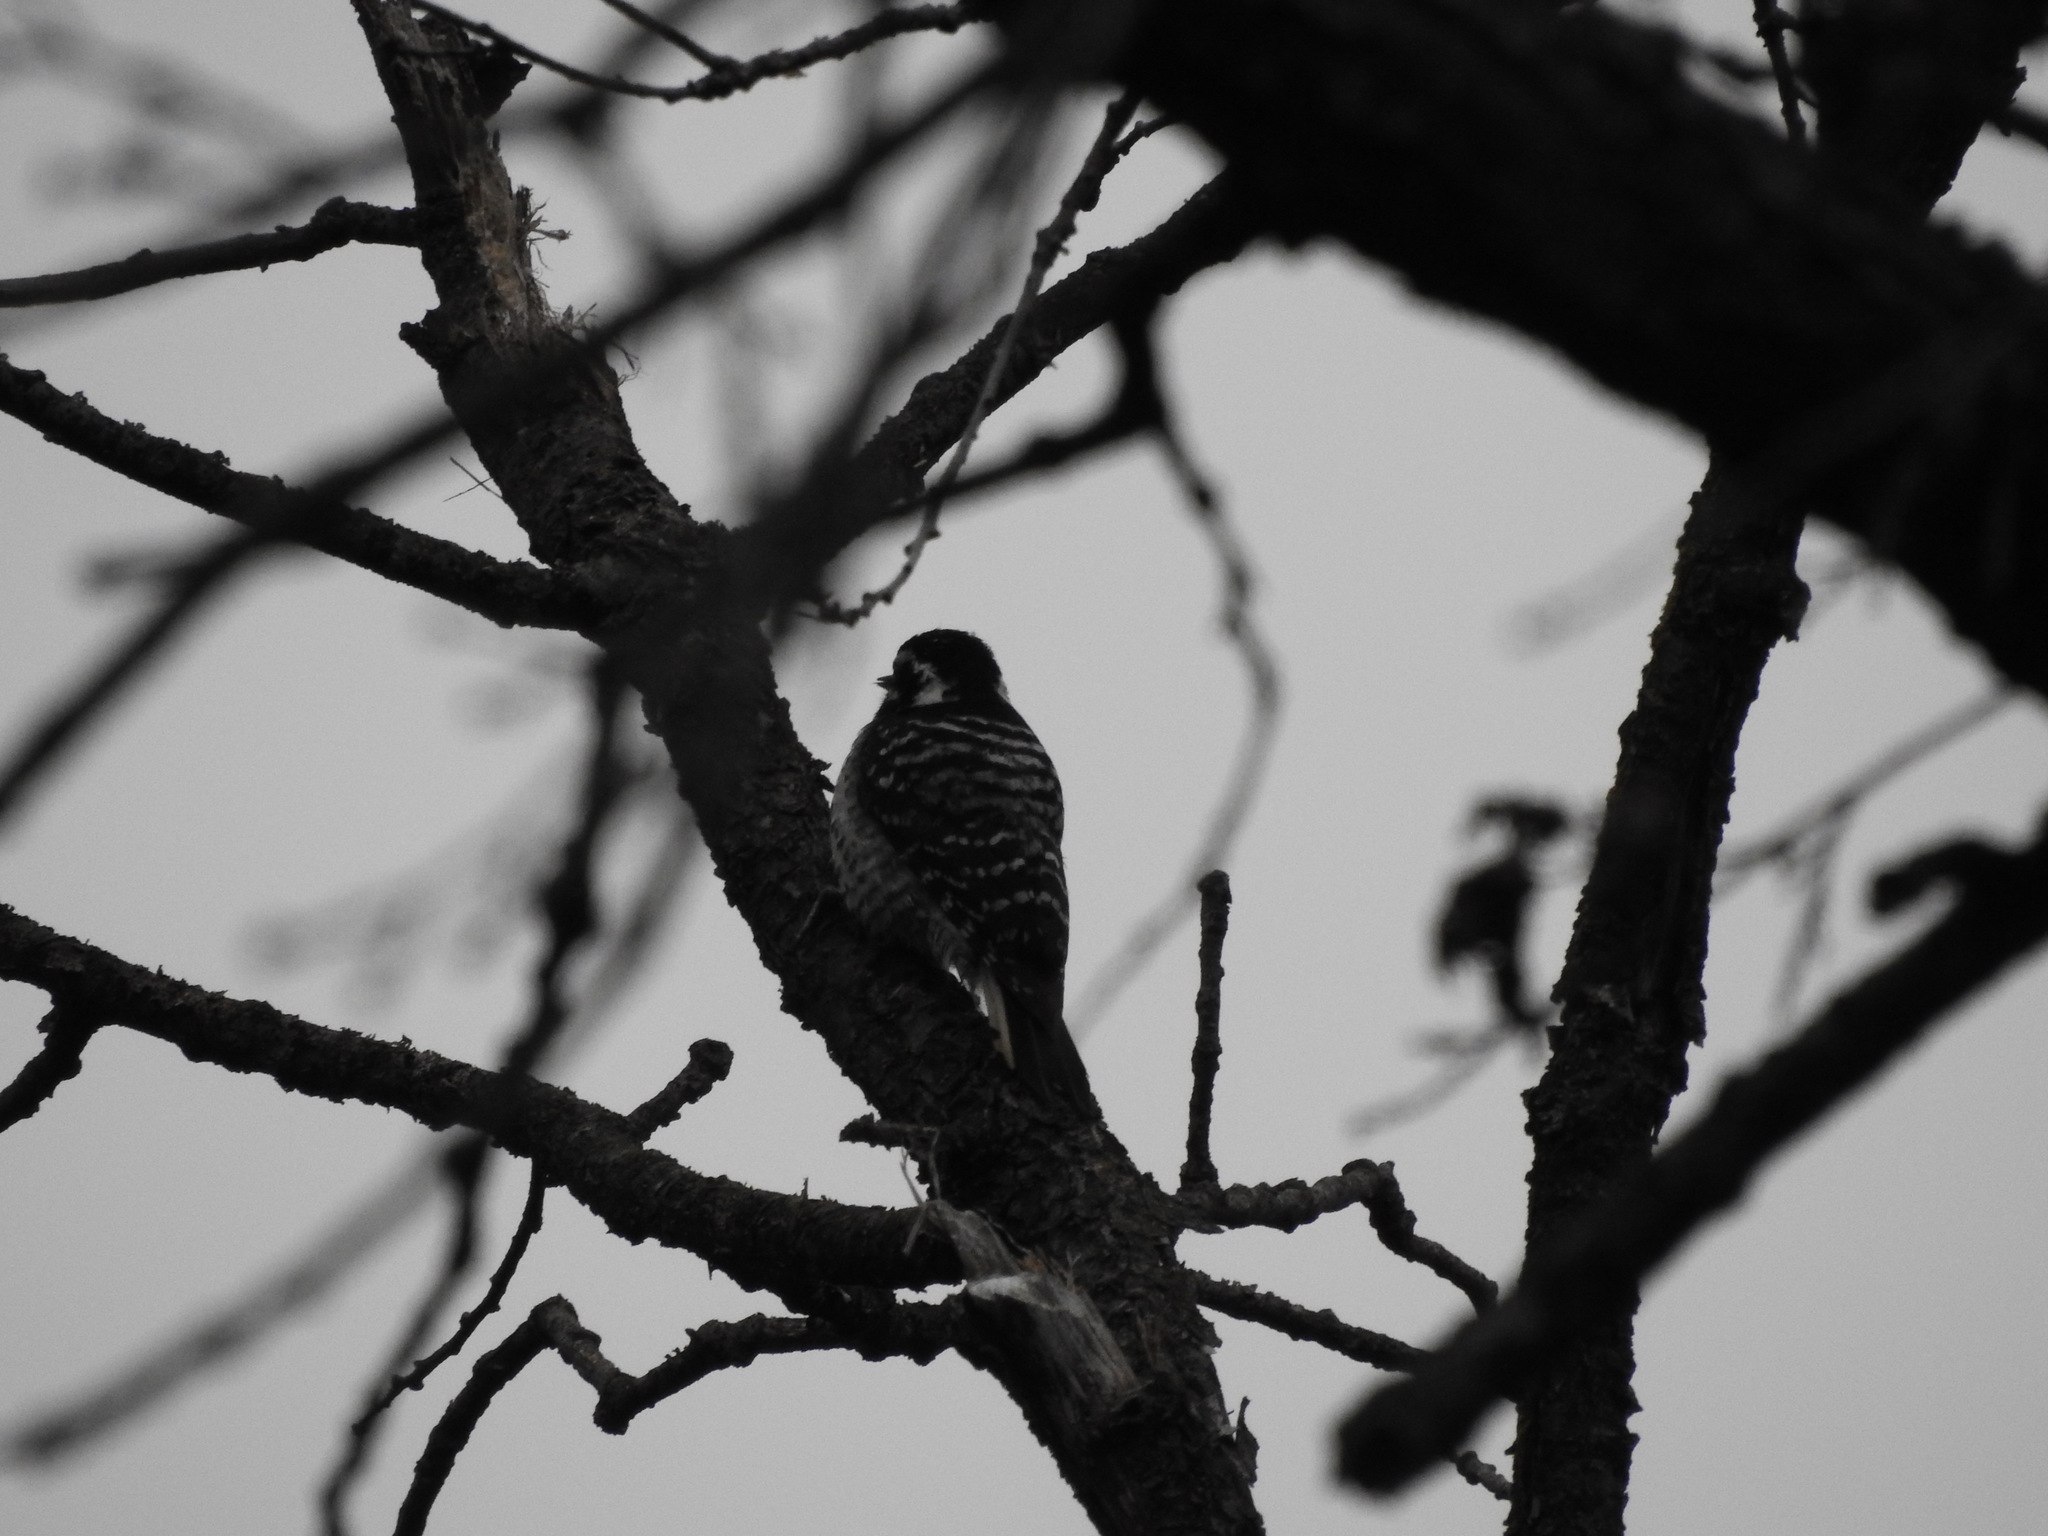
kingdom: Animalia
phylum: Chordata
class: Aves
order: Piciformes
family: Picidae
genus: Dryobates
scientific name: Dryobates nuttallii
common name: Nuttall's woodpecker
